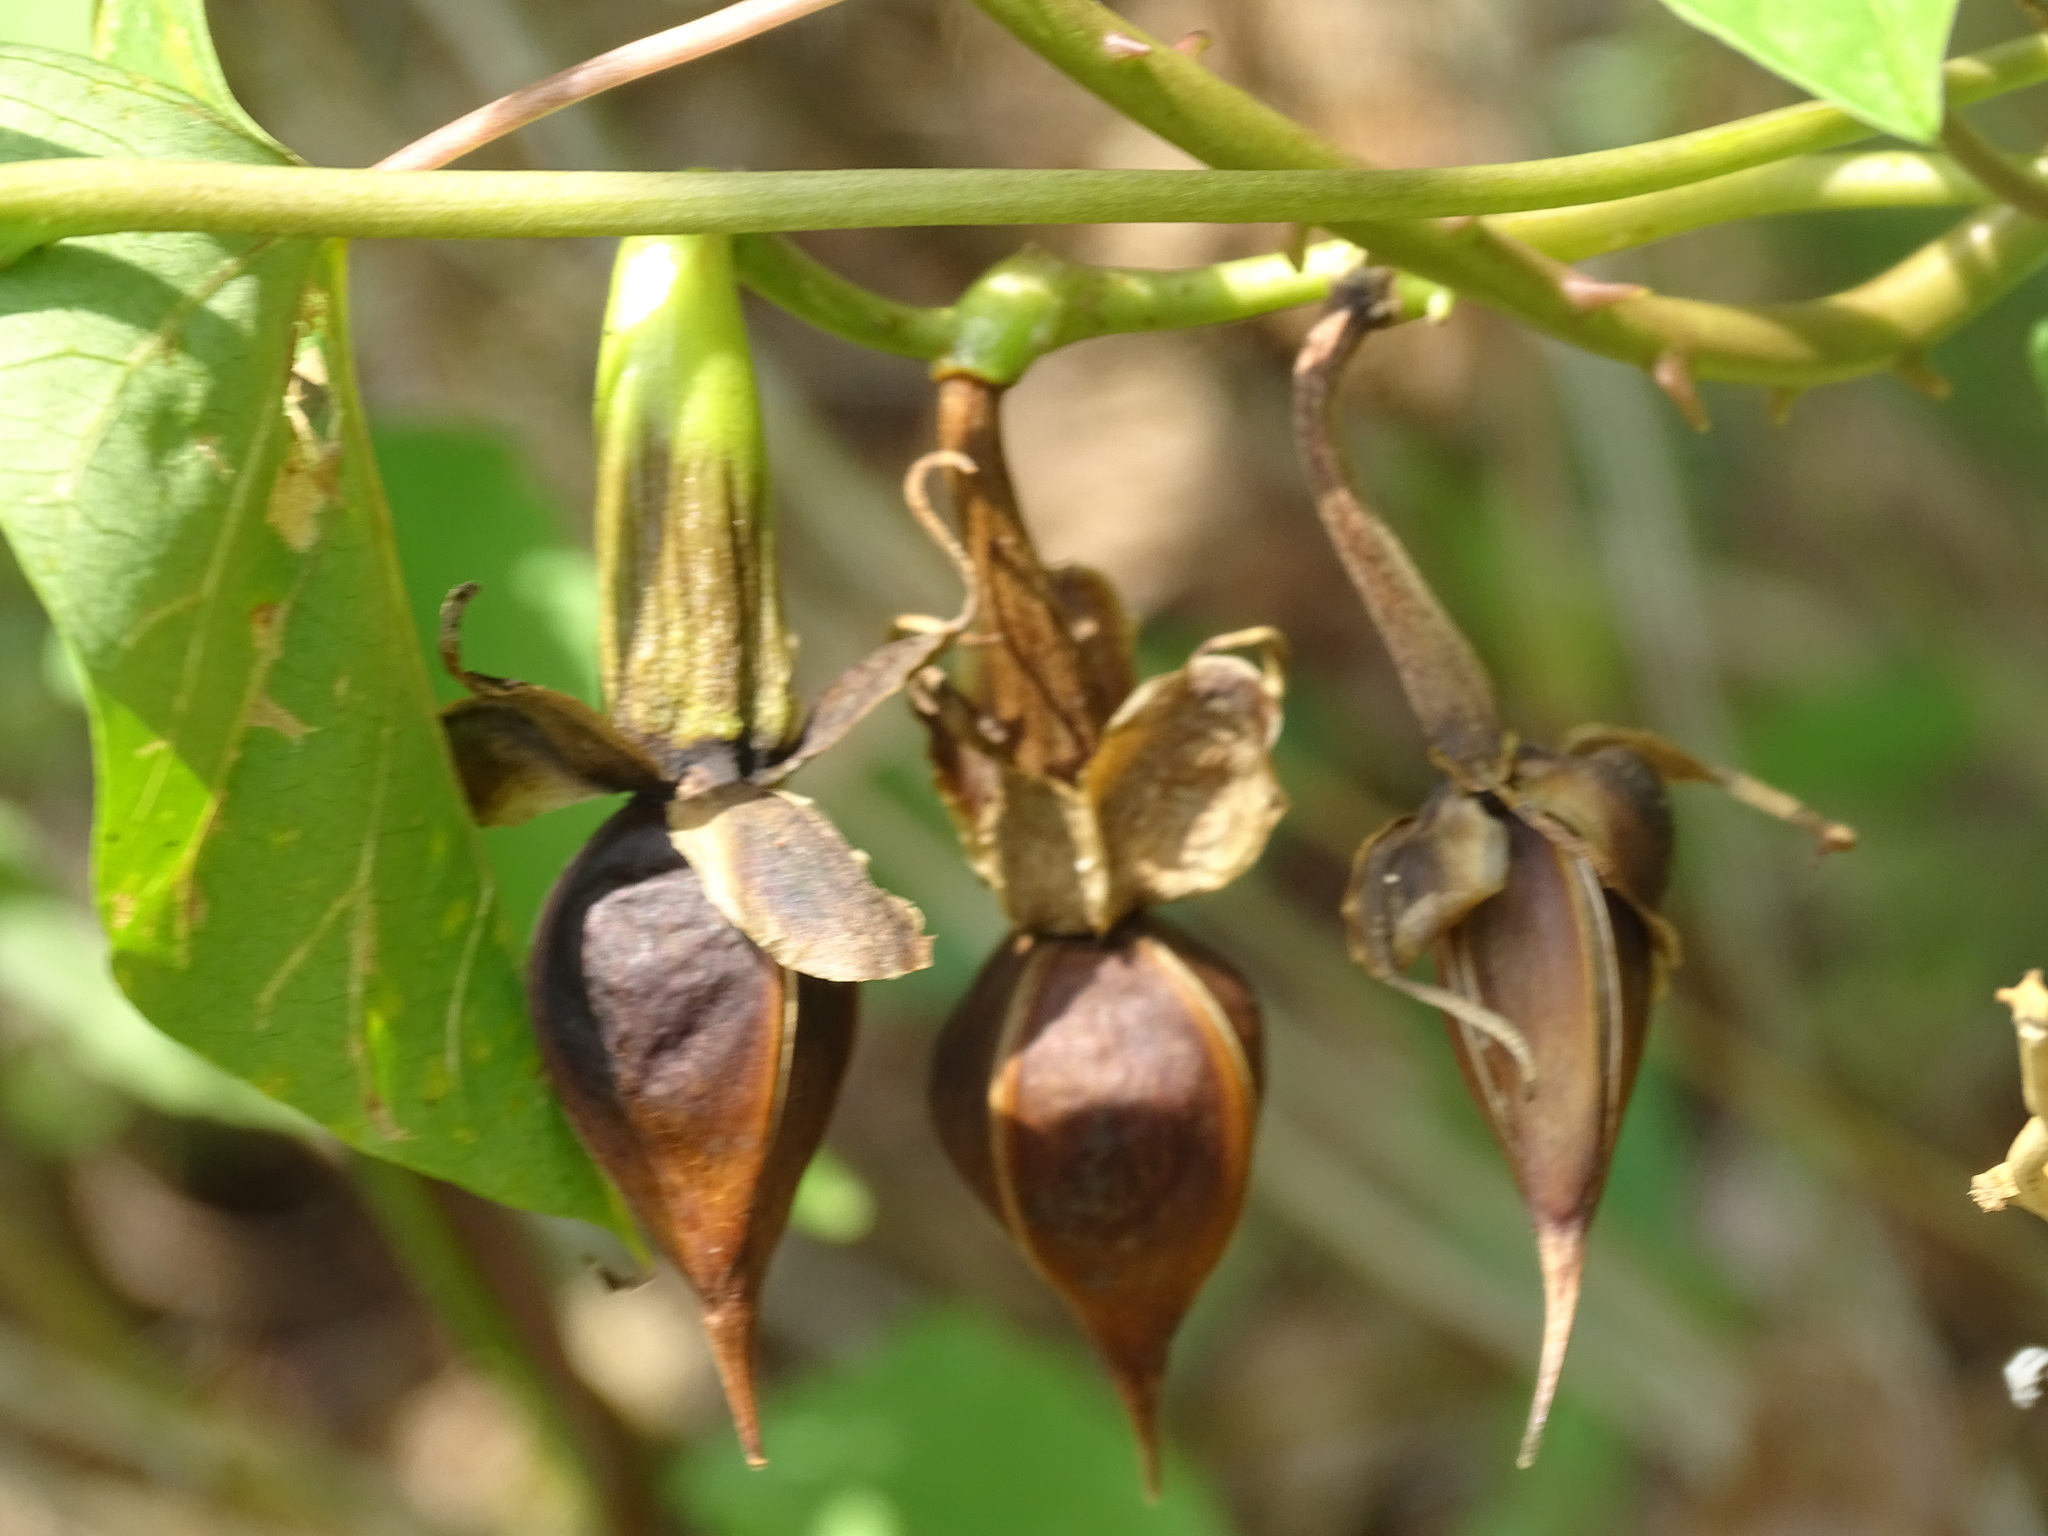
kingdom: Plantae
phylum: Tracheophyta
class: Magnoliopsida
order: Solanales
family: Convolvulaceae
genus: Ipomoea
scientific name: Ipomoea alba
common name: Moonflower
